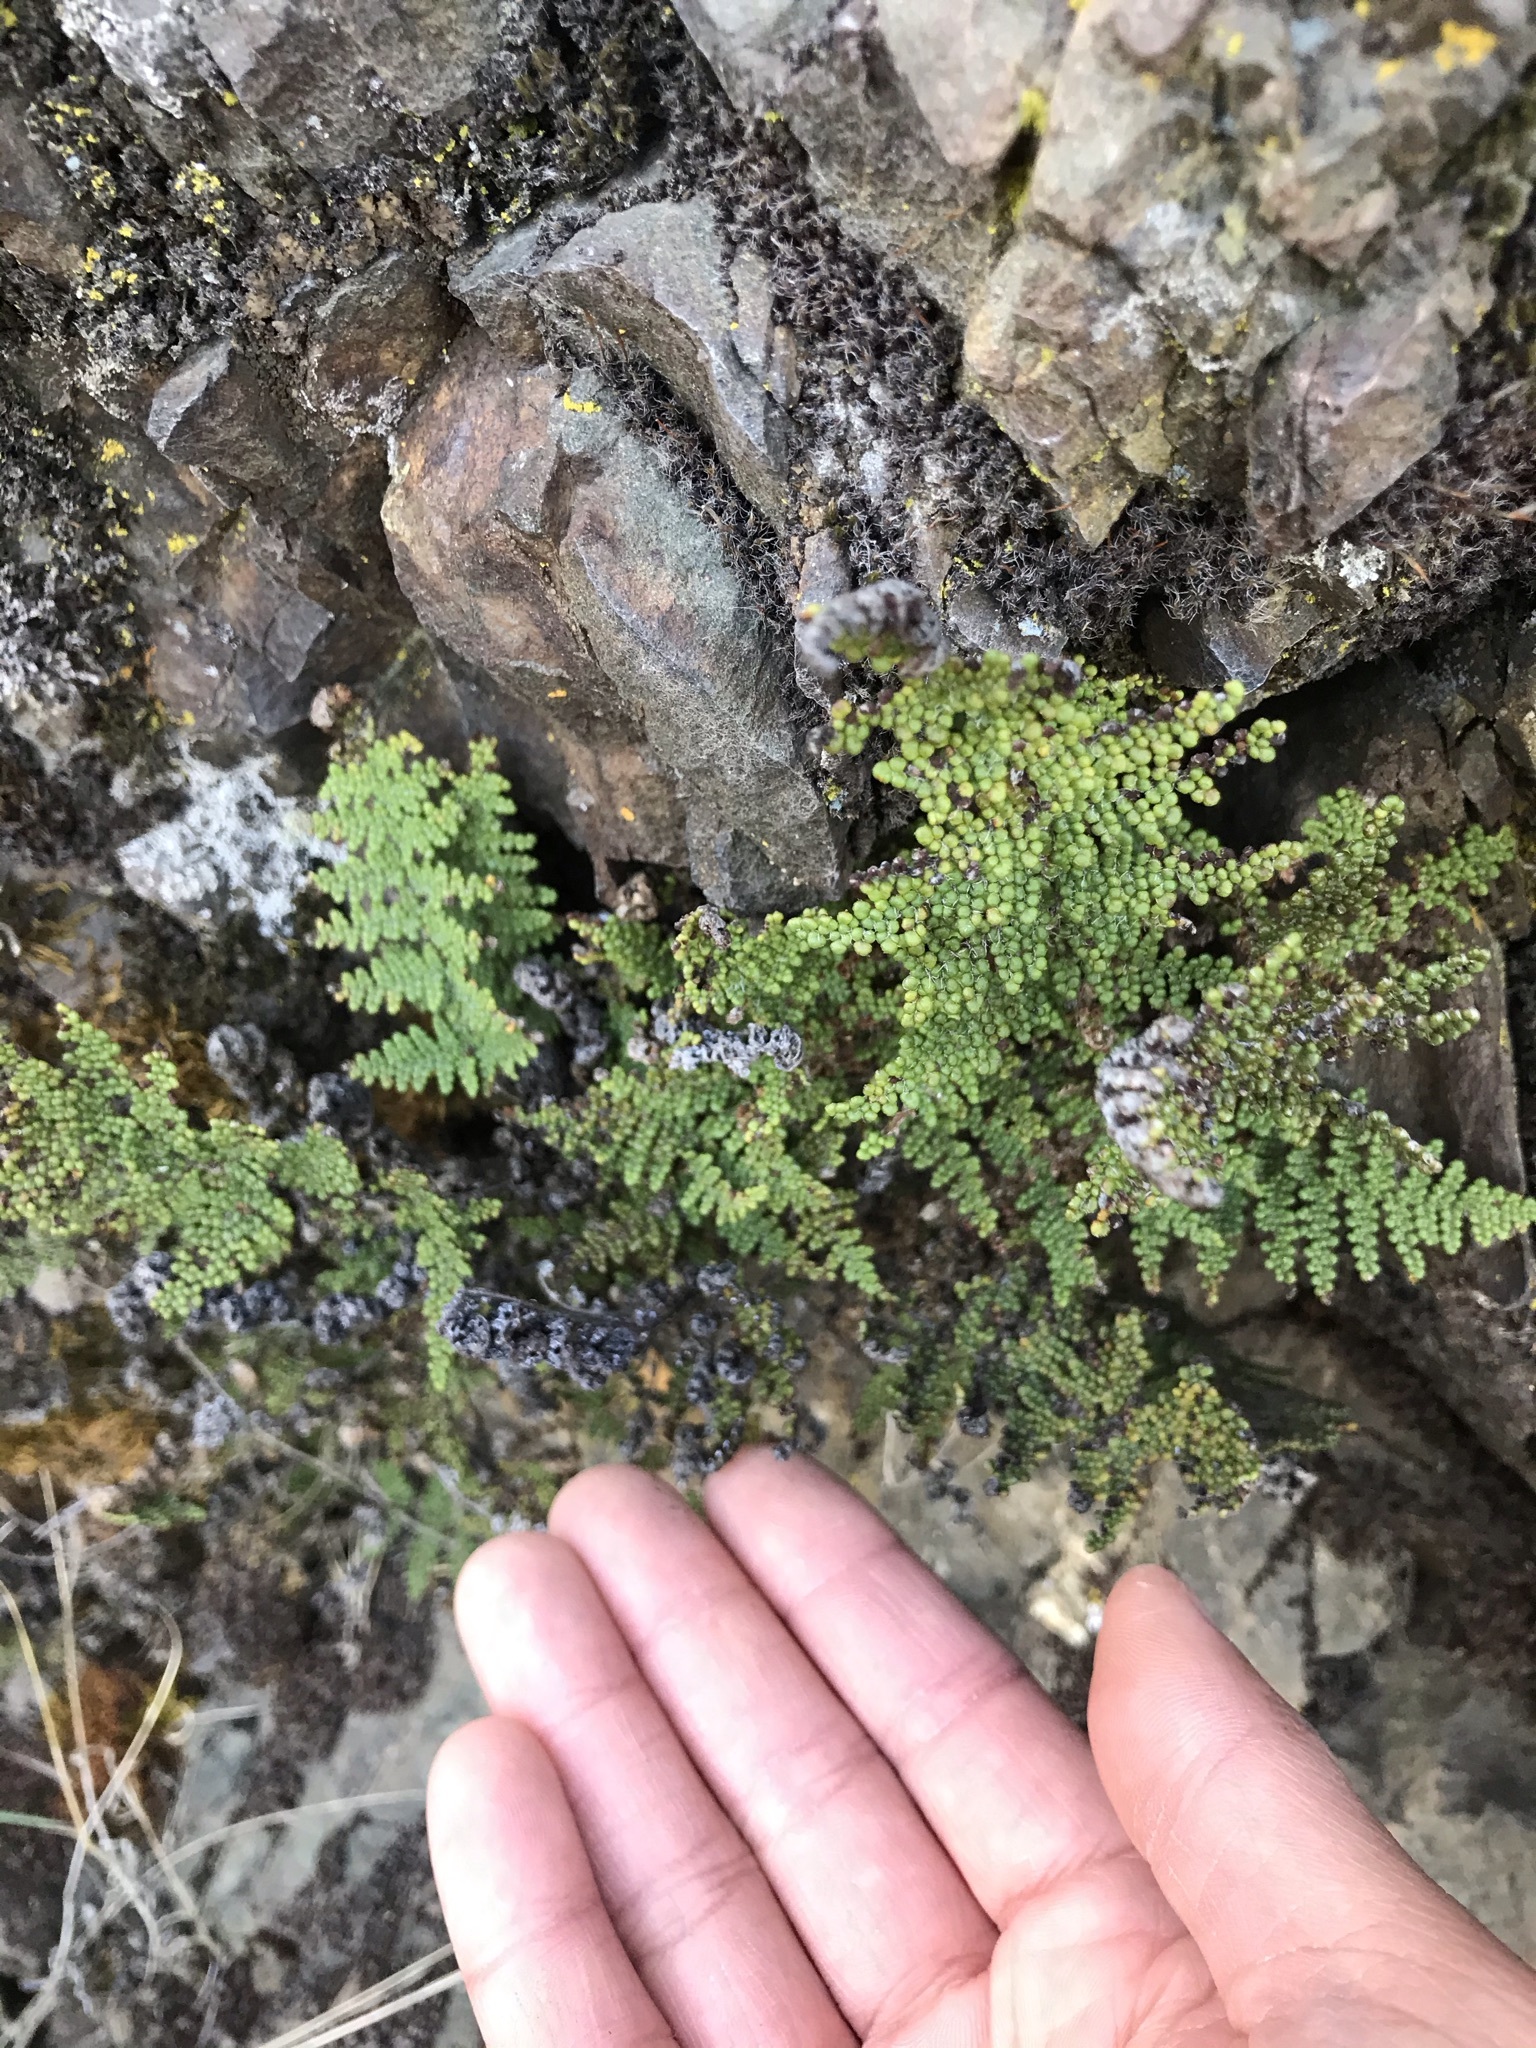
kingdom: Plantae
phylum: Tracheophyta
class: Polypodiopsida
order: Polypodiales
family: Pteridaceae
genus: Myriopteris
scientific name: Myriopteris covillei
